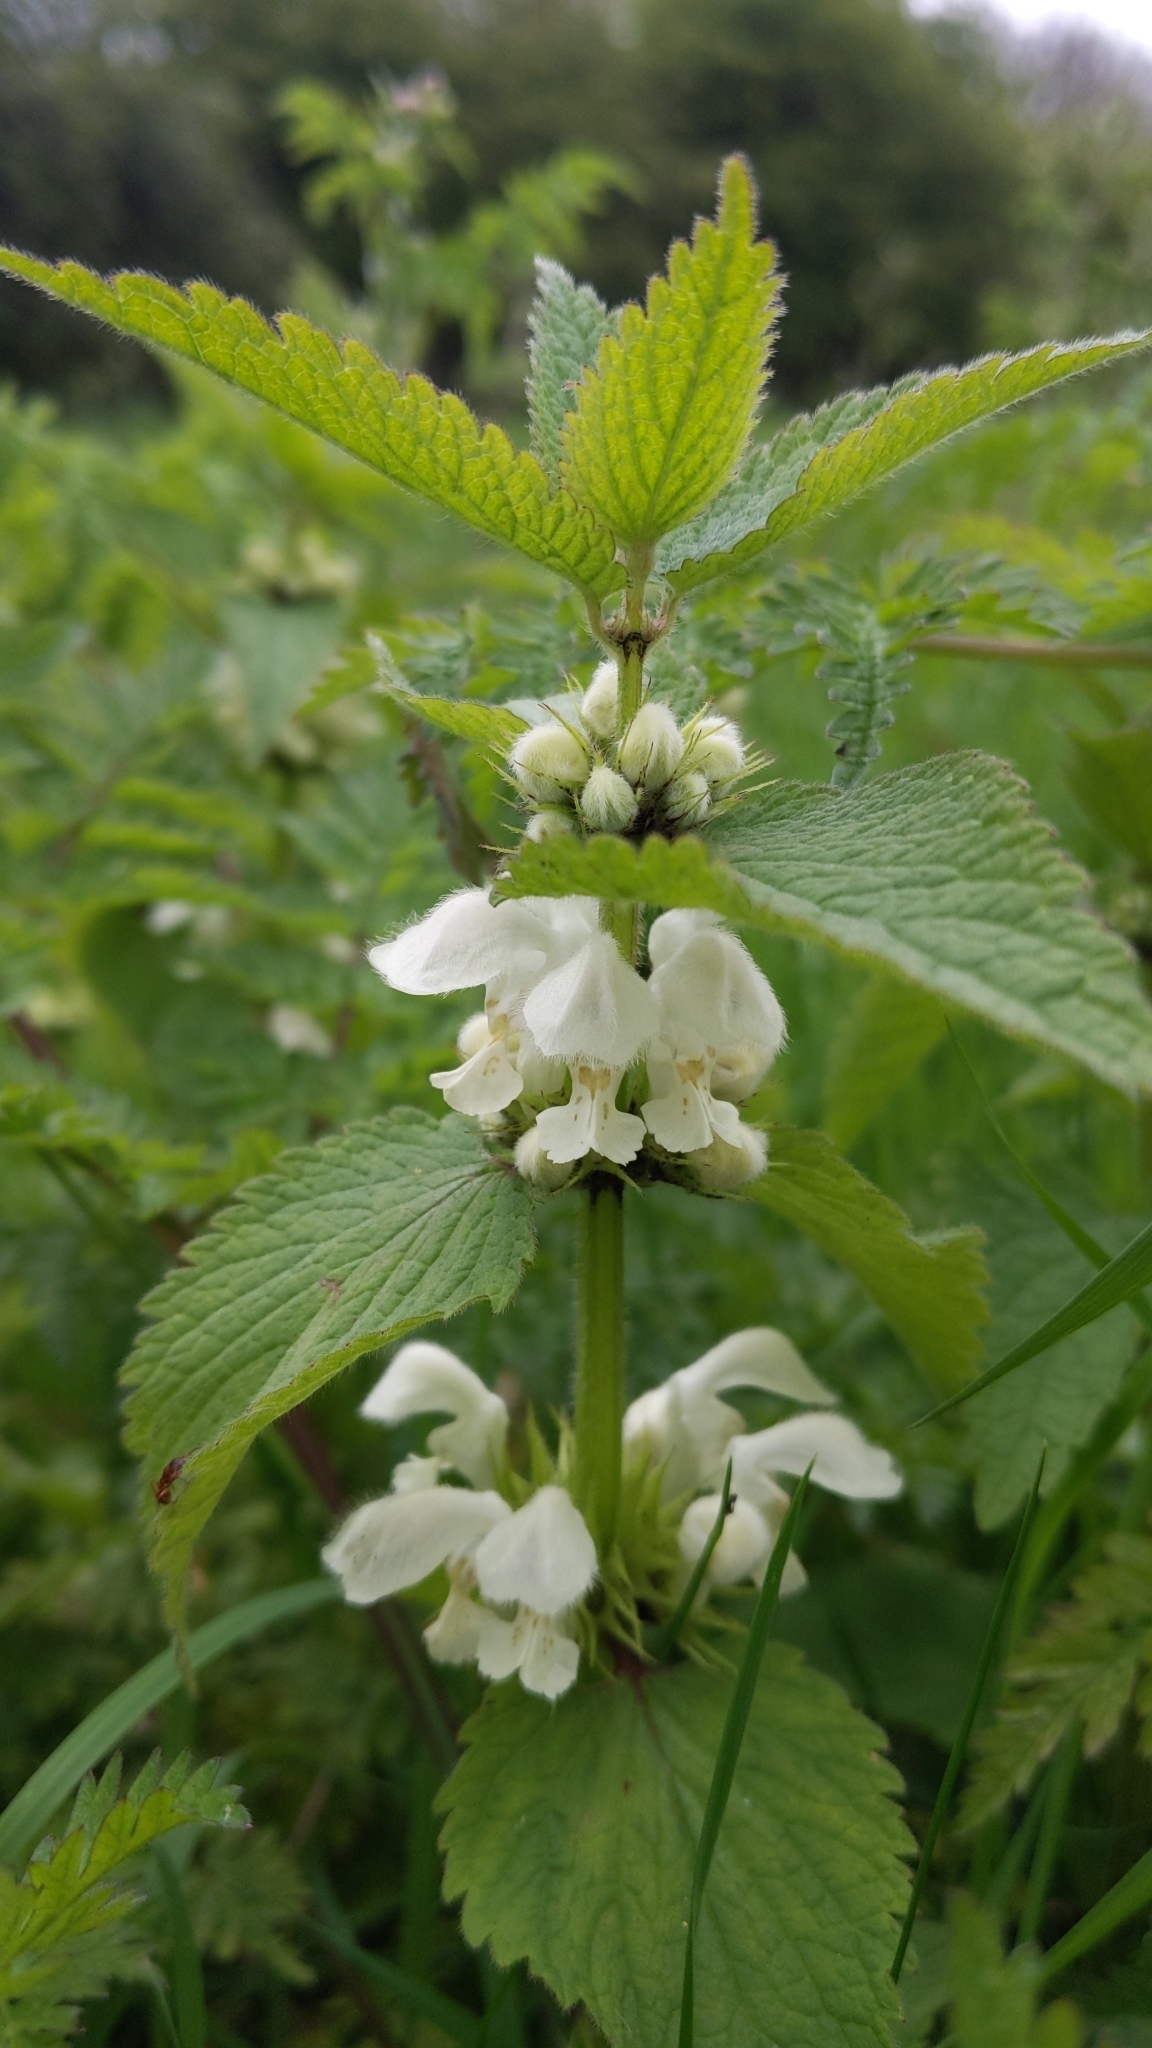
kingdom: Plantae
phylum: Tracheophyta
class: Magnoliopsida
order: Lamiales
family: Lamiaceae
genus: Lamium
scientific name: Lamium album
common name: White dead-nettle
